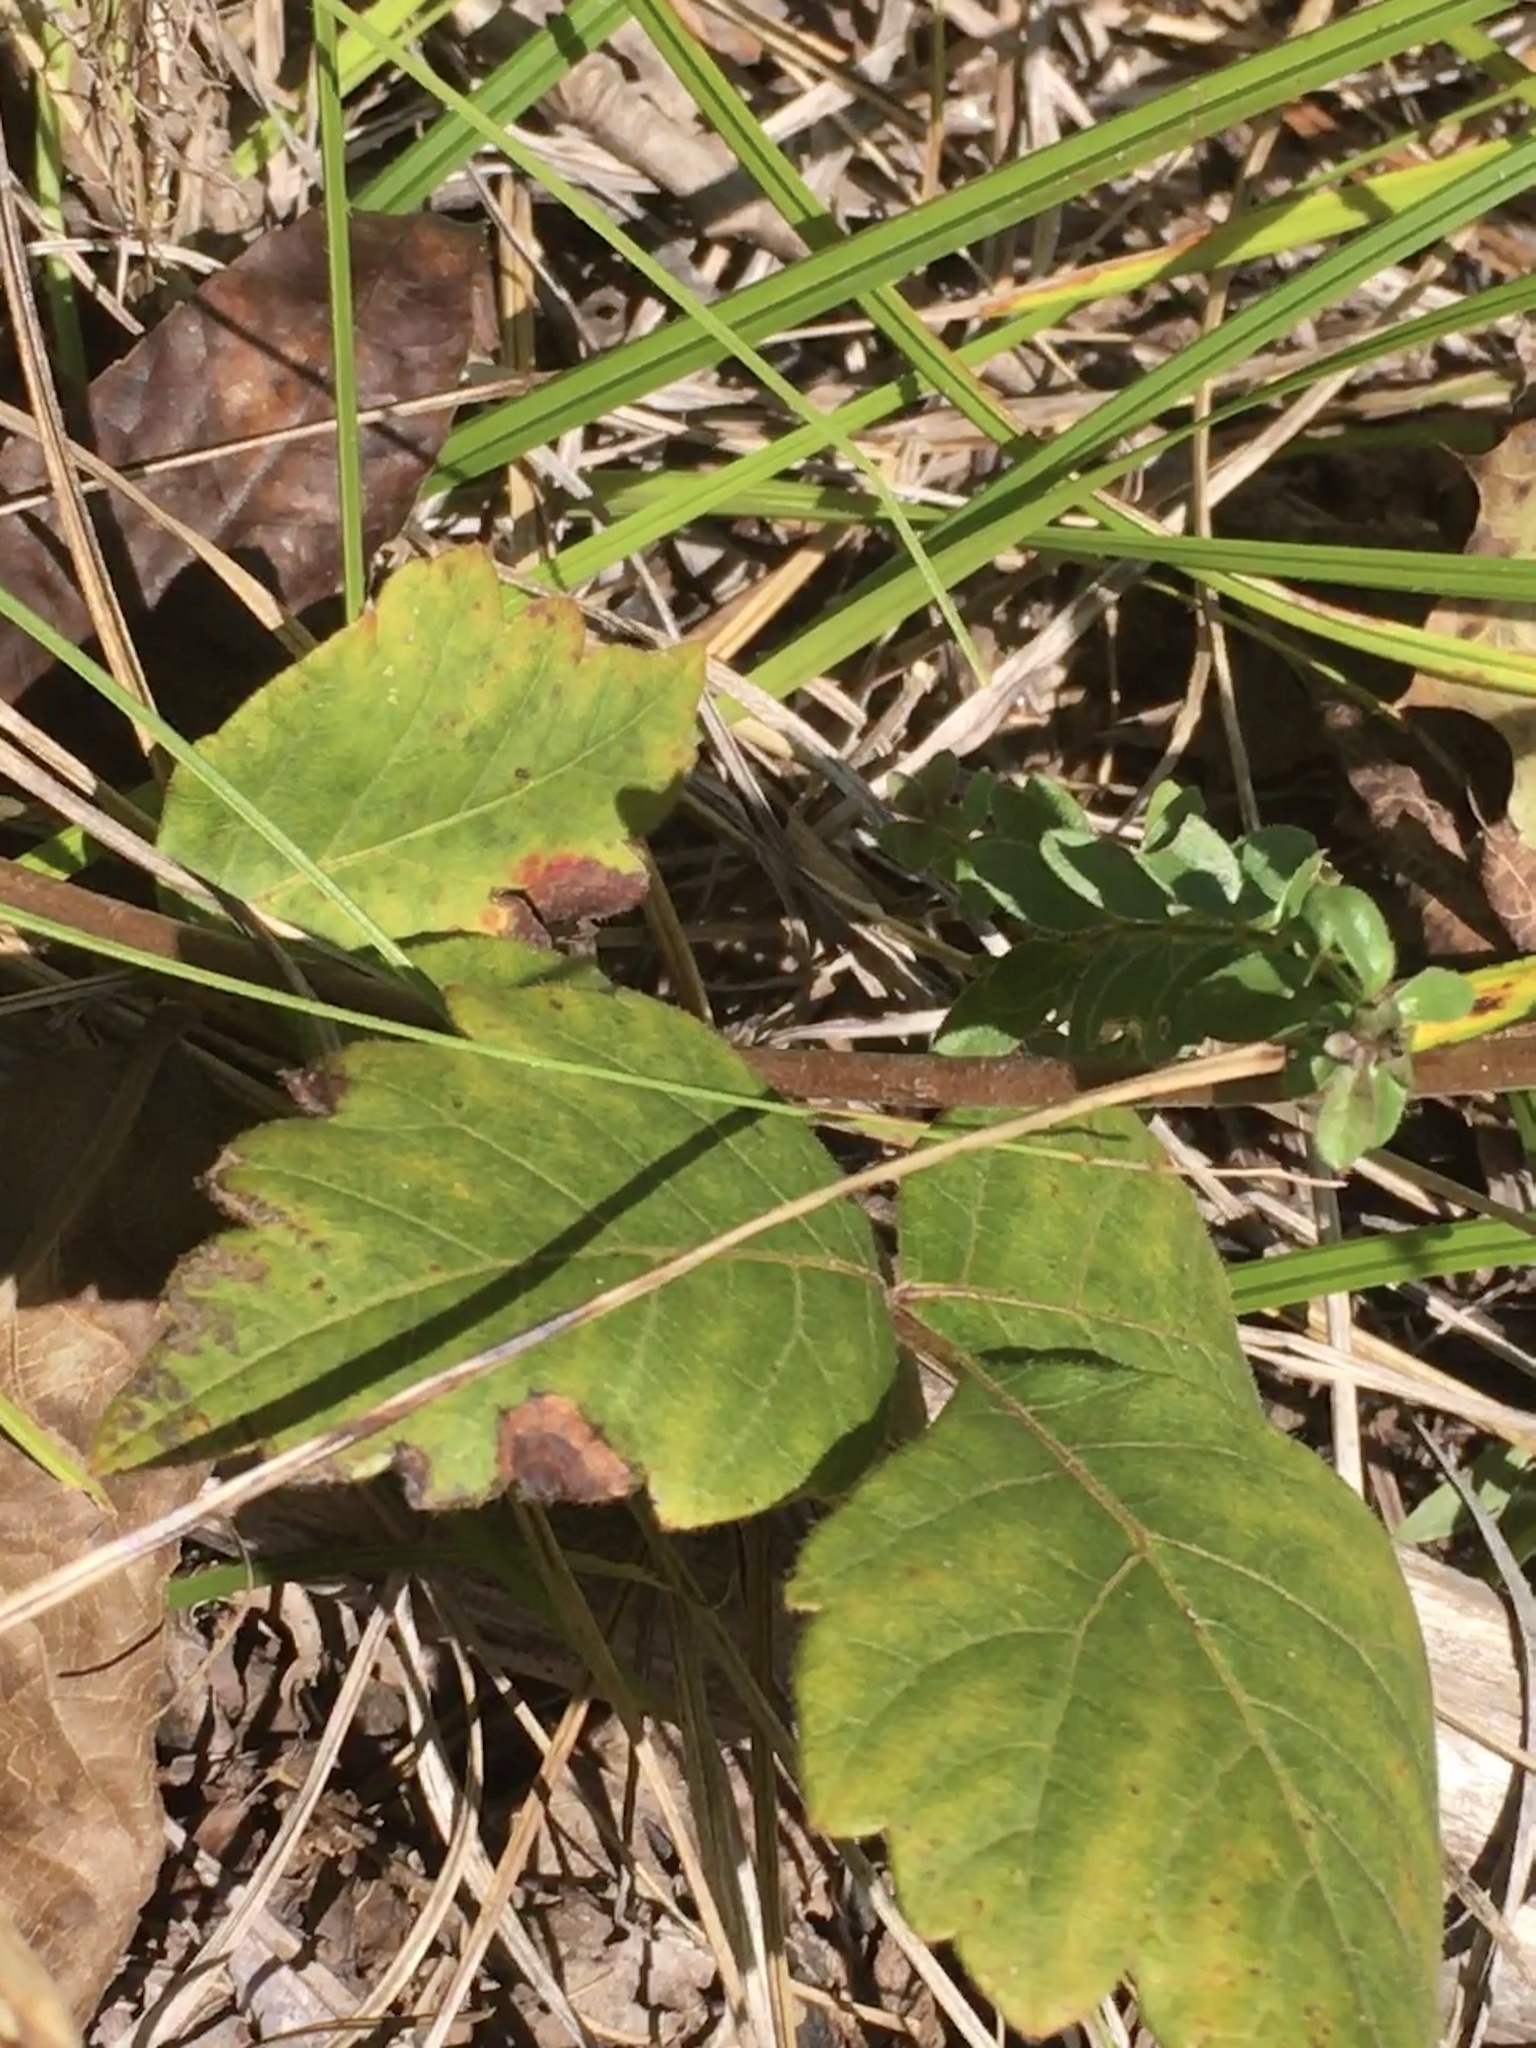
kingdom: Plantae
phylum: Tracheophyta
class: Magnoliopsida
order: Sapindales
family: Anacardiaceae
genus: Rhus
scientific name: Rhus aromatica
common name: Aromatic sumac
